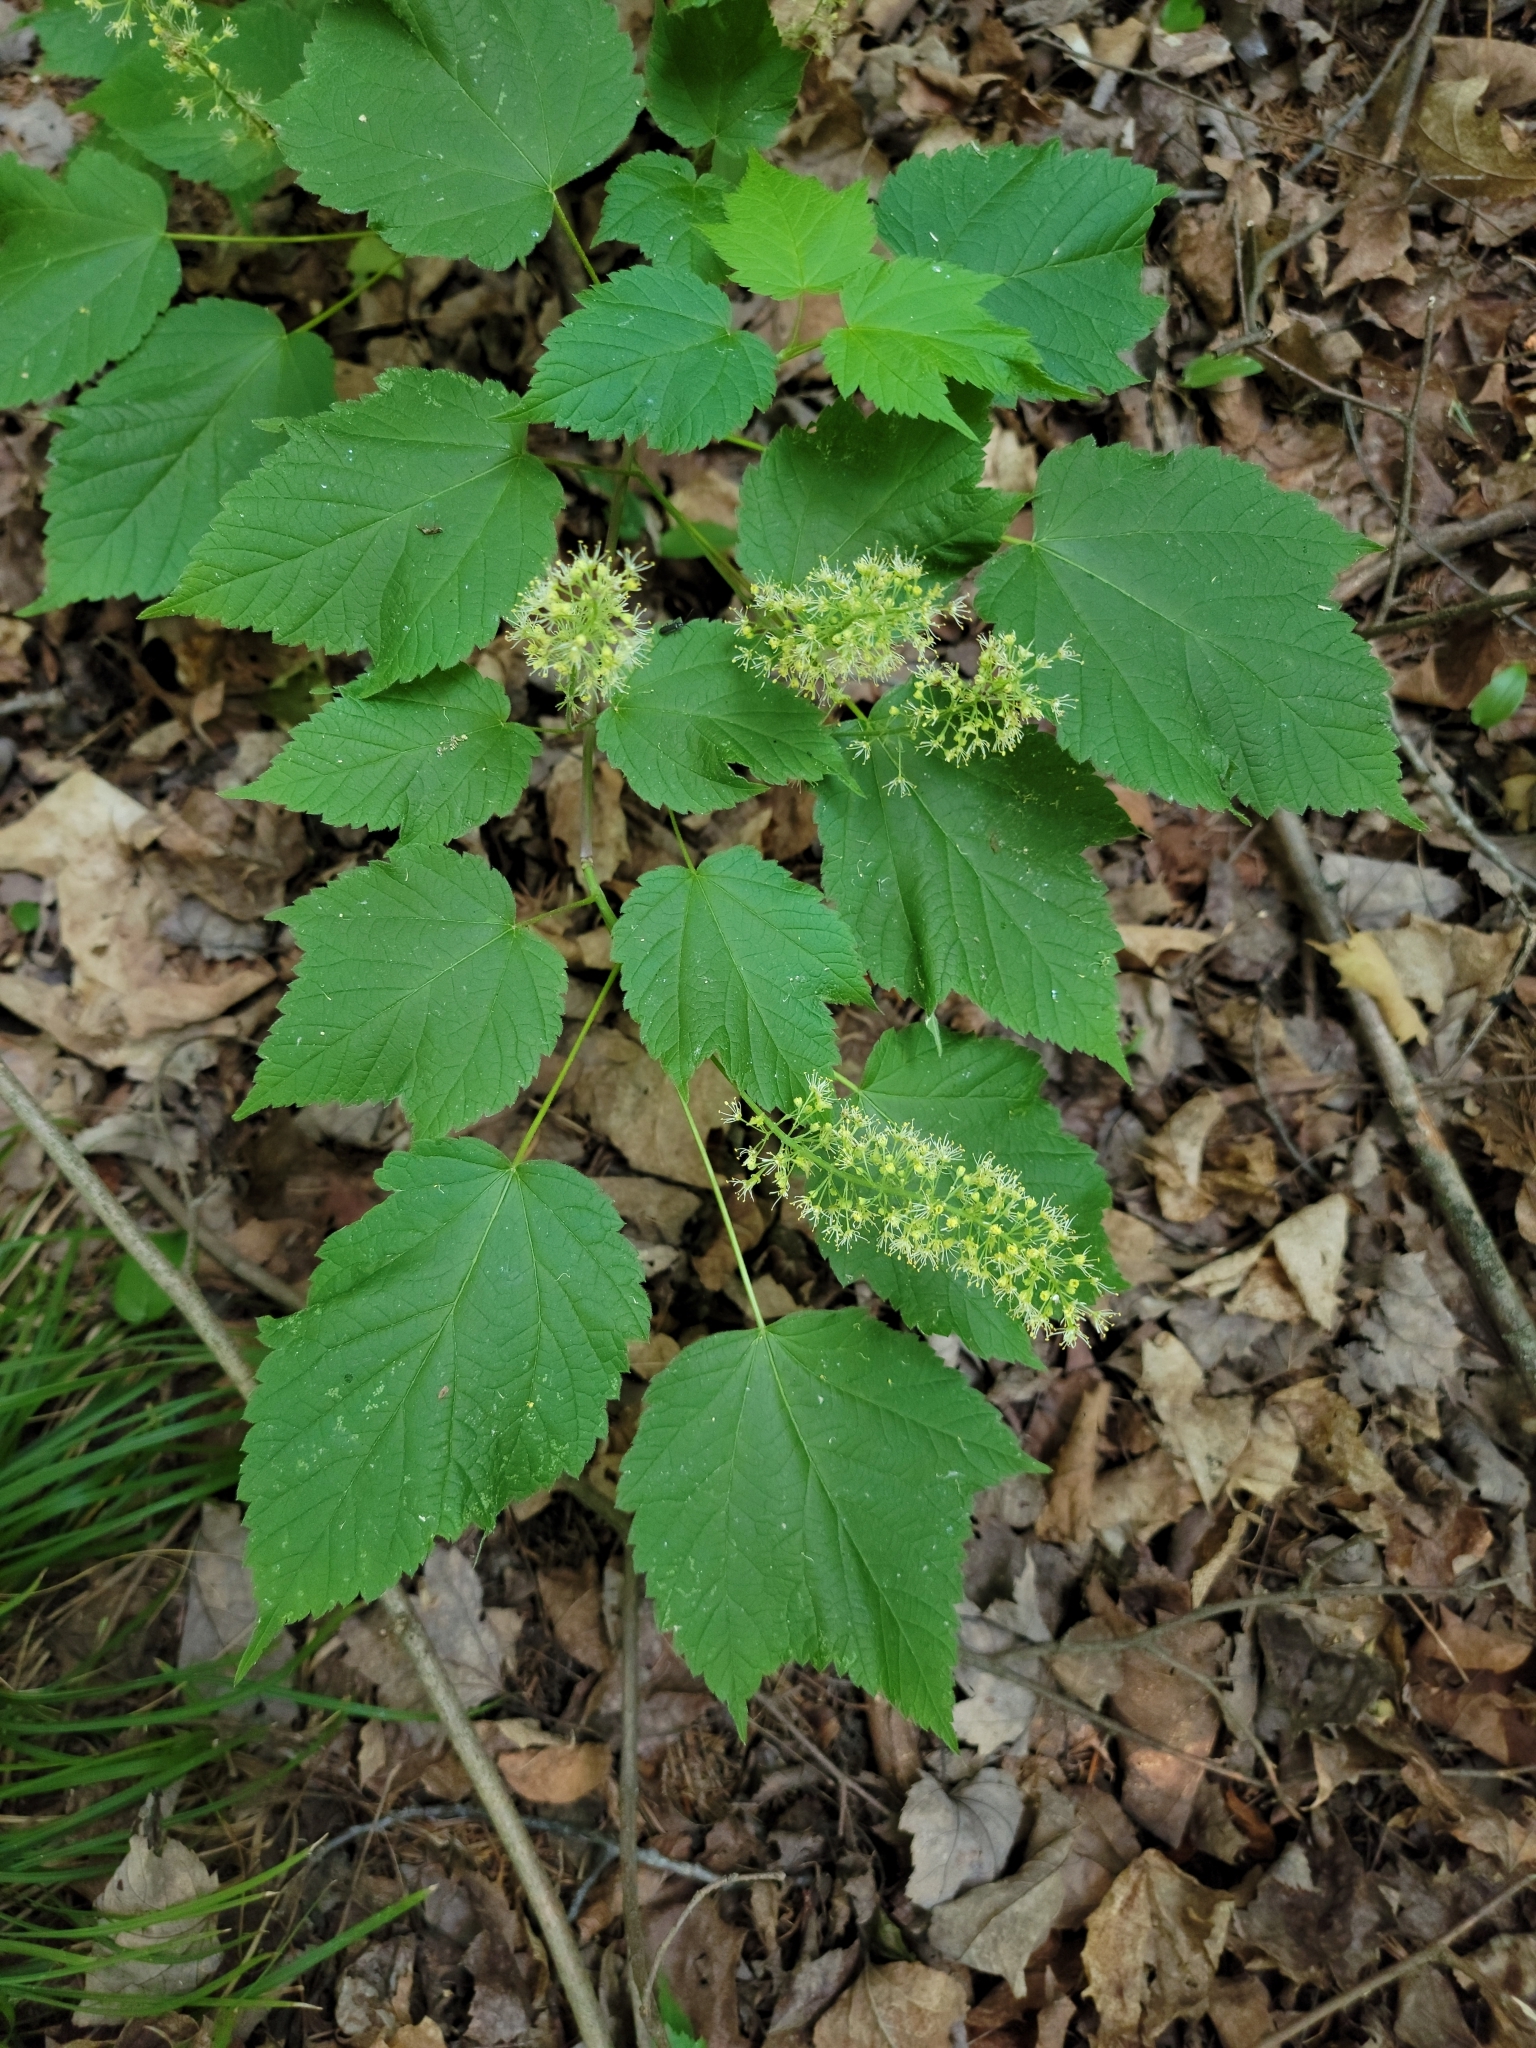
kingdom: Plantae
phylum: Tracheophyta
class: Magnoliopsida
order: Sapindales
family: Sapindaceae
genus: Acer
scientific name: Acer spicatum
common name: Mountain maple
